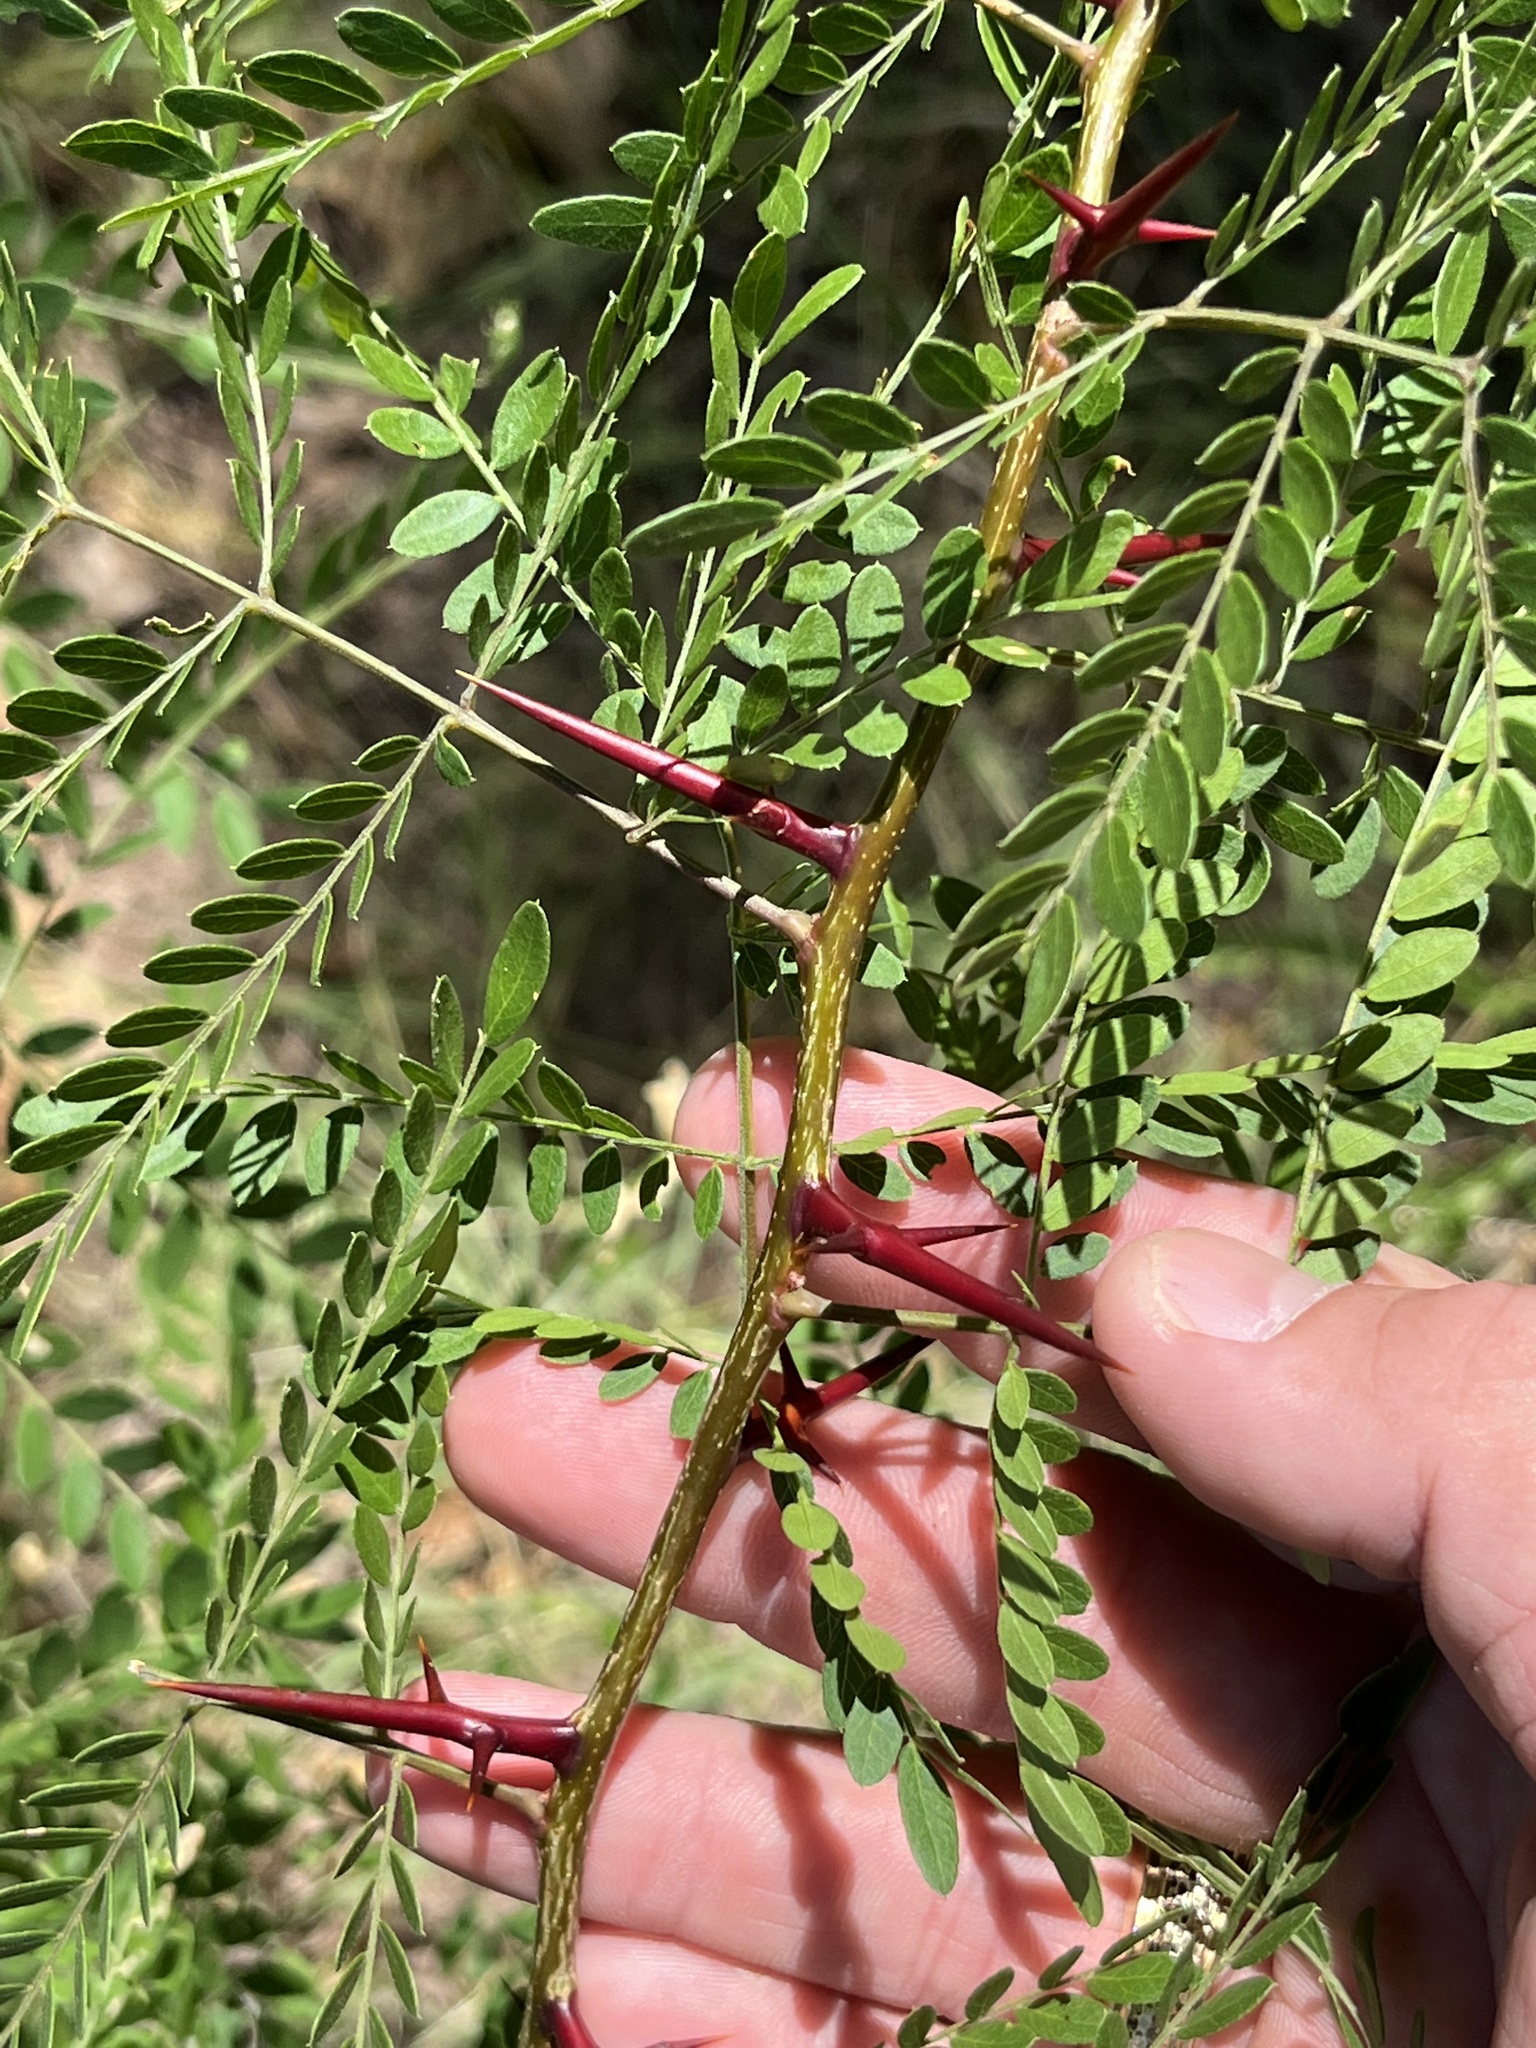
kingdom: Plantae
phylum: Tracheophyta
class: Magnoliopsida
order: Fabales
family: Fabaceae
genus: Gleditsia
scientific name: Gleditsia triacanthos
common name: Common honeylocust
